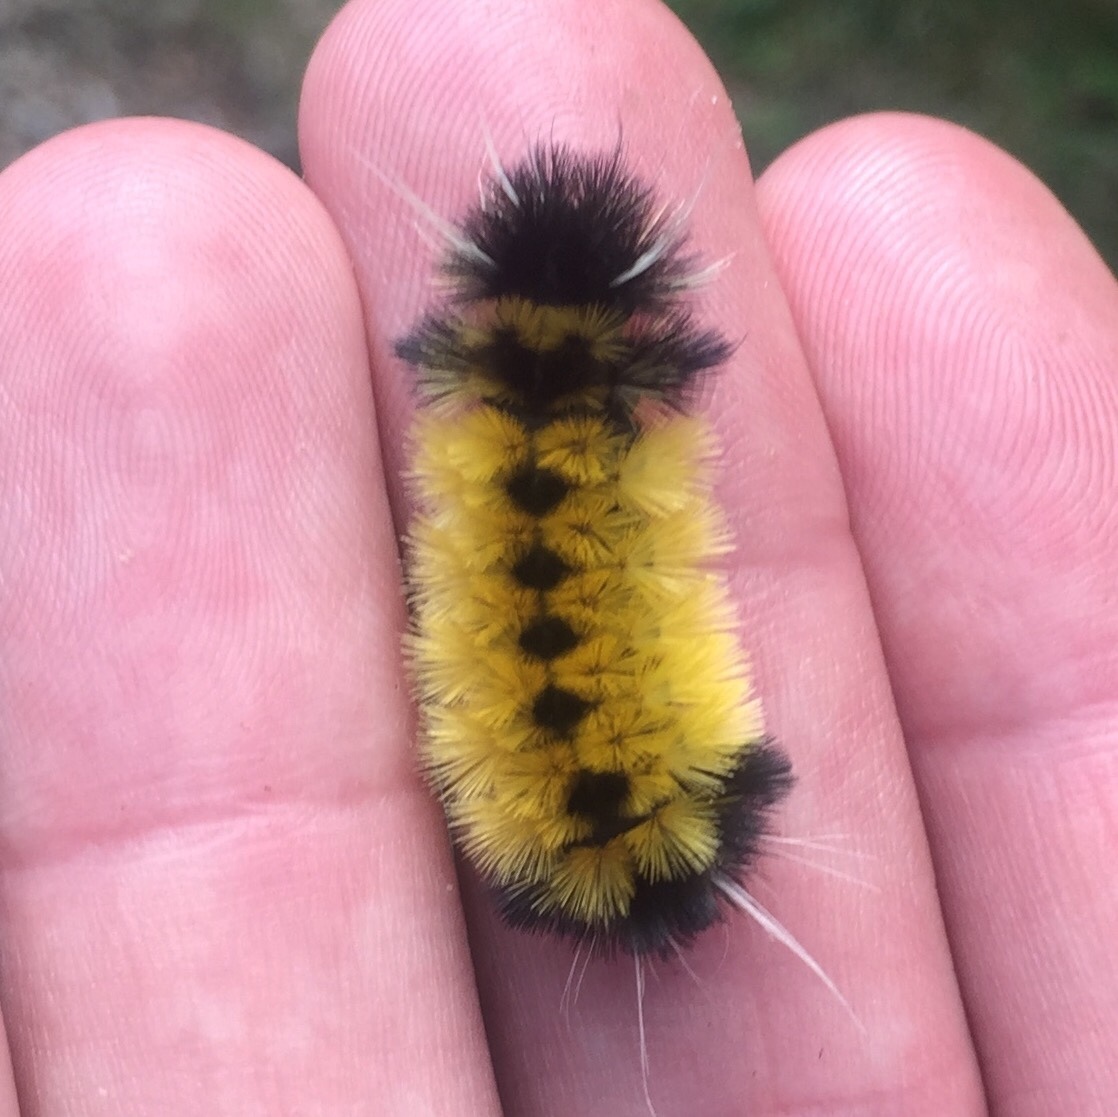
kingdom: Animalia
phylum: Arthropoda
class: Insecta
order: Lepidoptera
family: Erebidae
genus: Lophocampa
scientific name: Lophocampa maculata
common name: Spotted tussock moth
